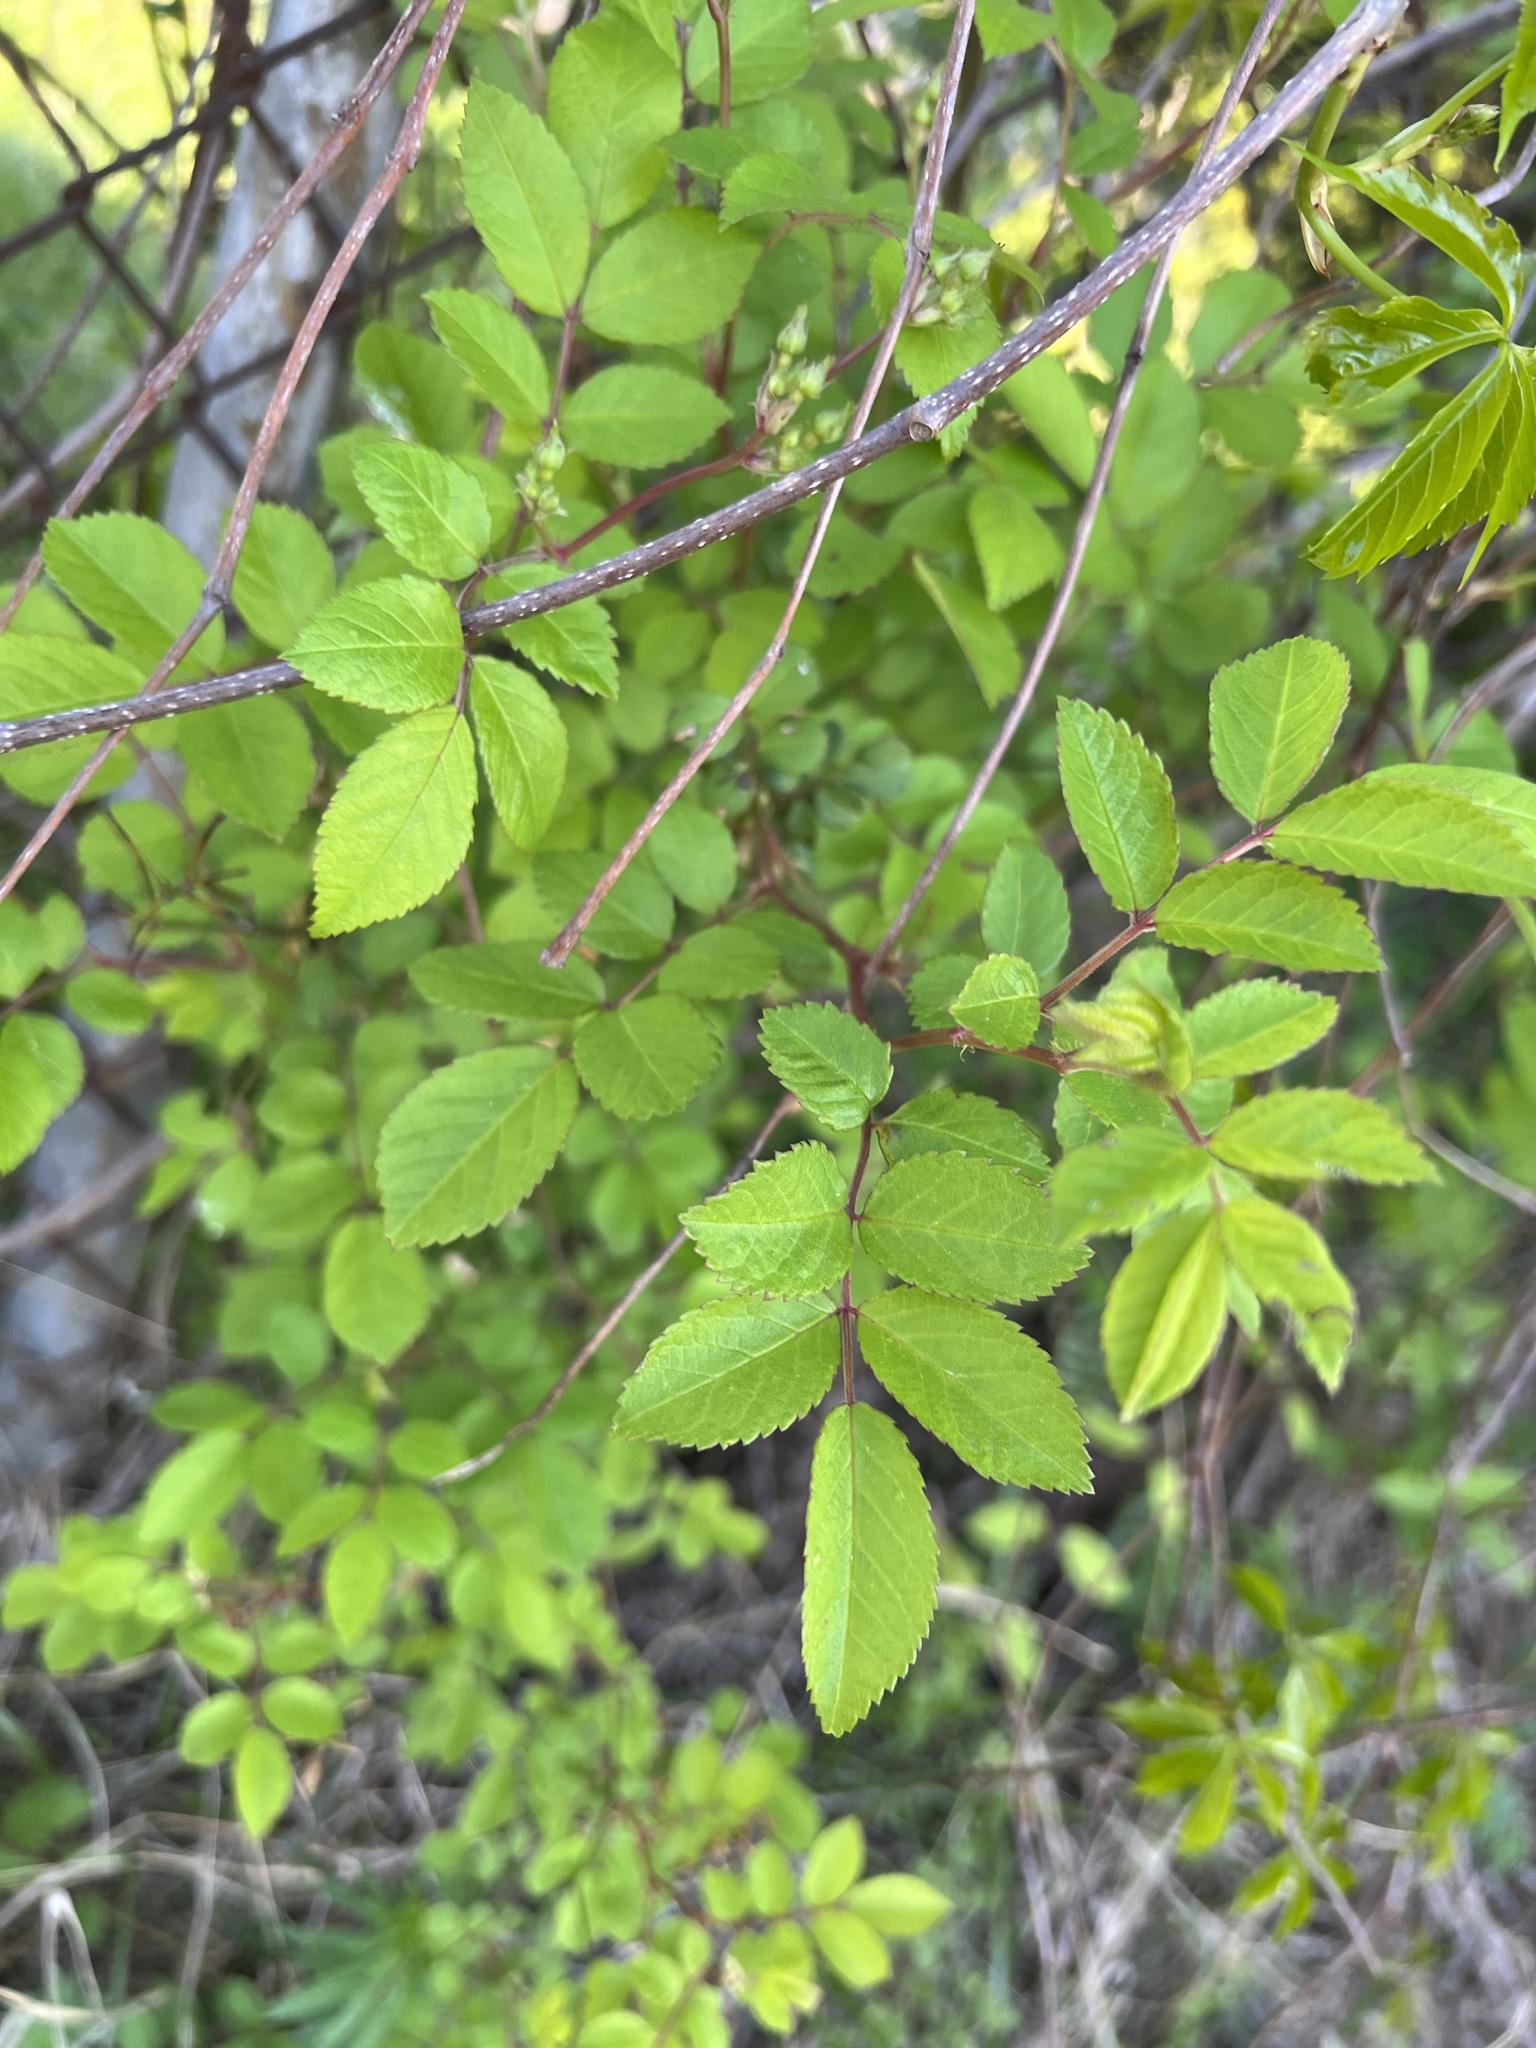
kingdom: Plantae
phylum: Tracheophyta
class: Magnoliopsida
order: Rosales
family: Rosaceae
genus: Rosa
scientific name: Rosa multiflora
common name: Multiflora rose
